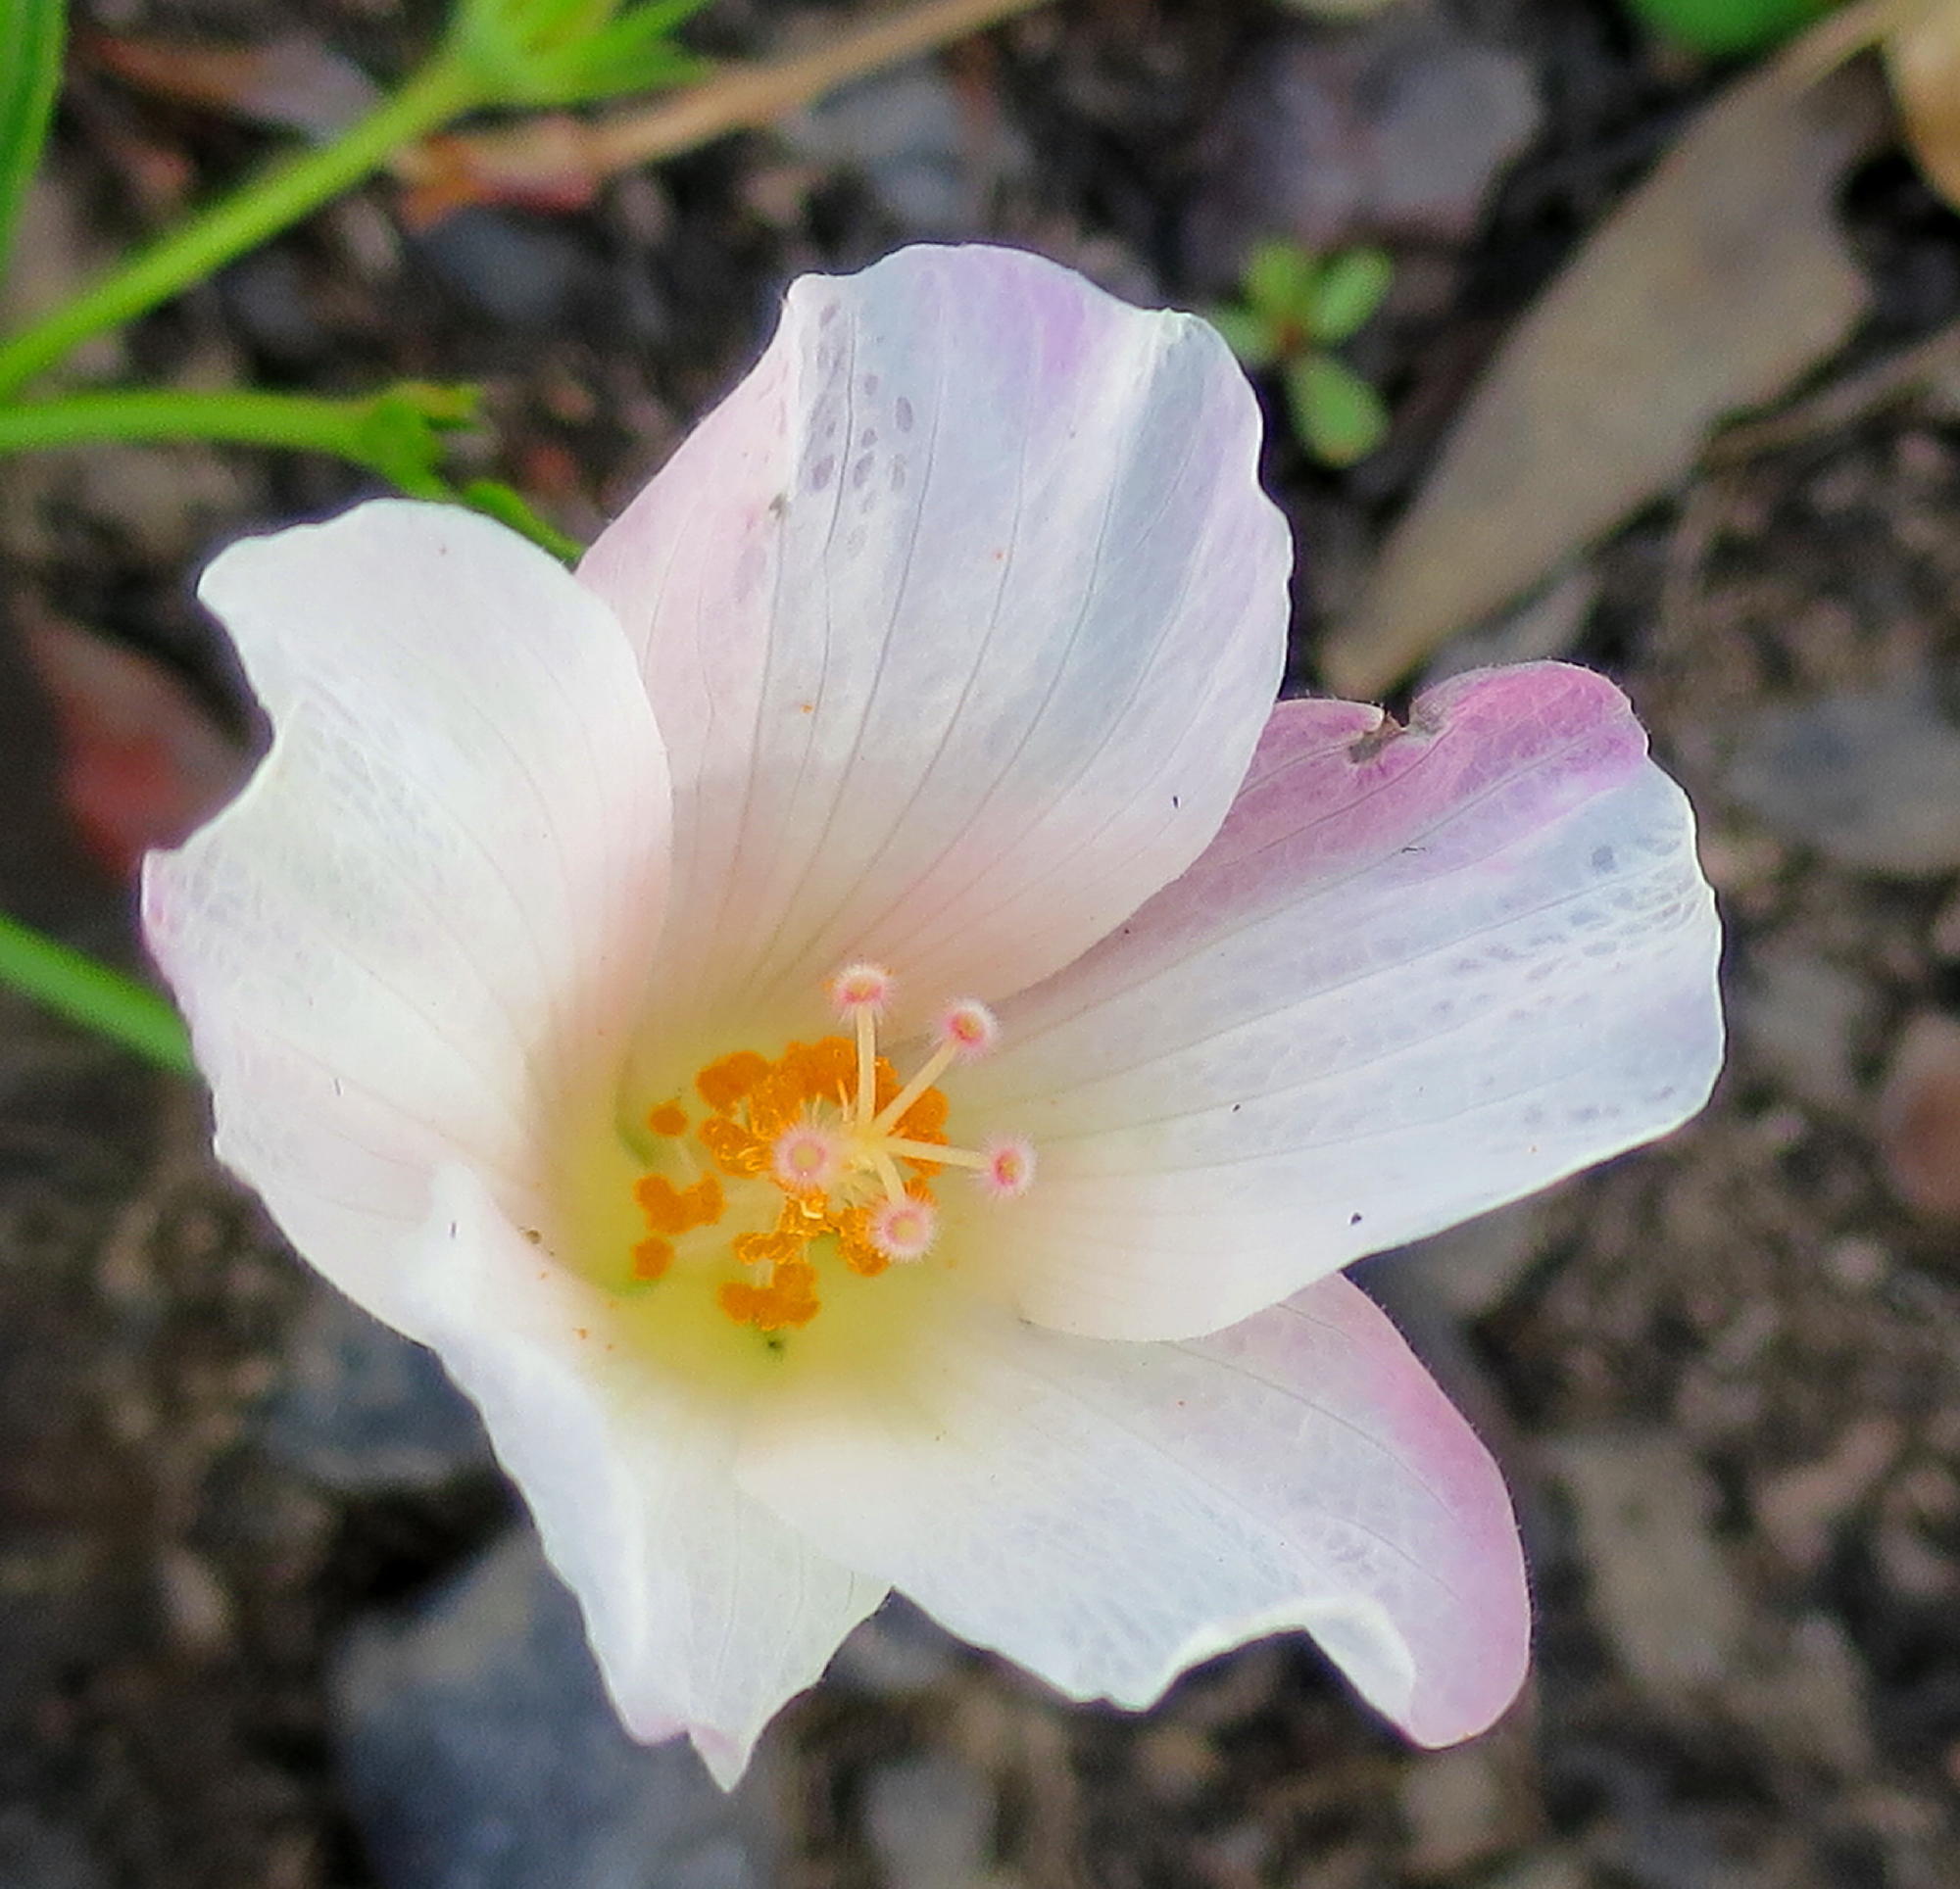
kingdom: Plantae
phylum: Tracheophyta
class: Magnoliopsida
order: Malvales
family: Malvaceae
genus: Hibiscus
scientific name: Hibiscus pusillus
